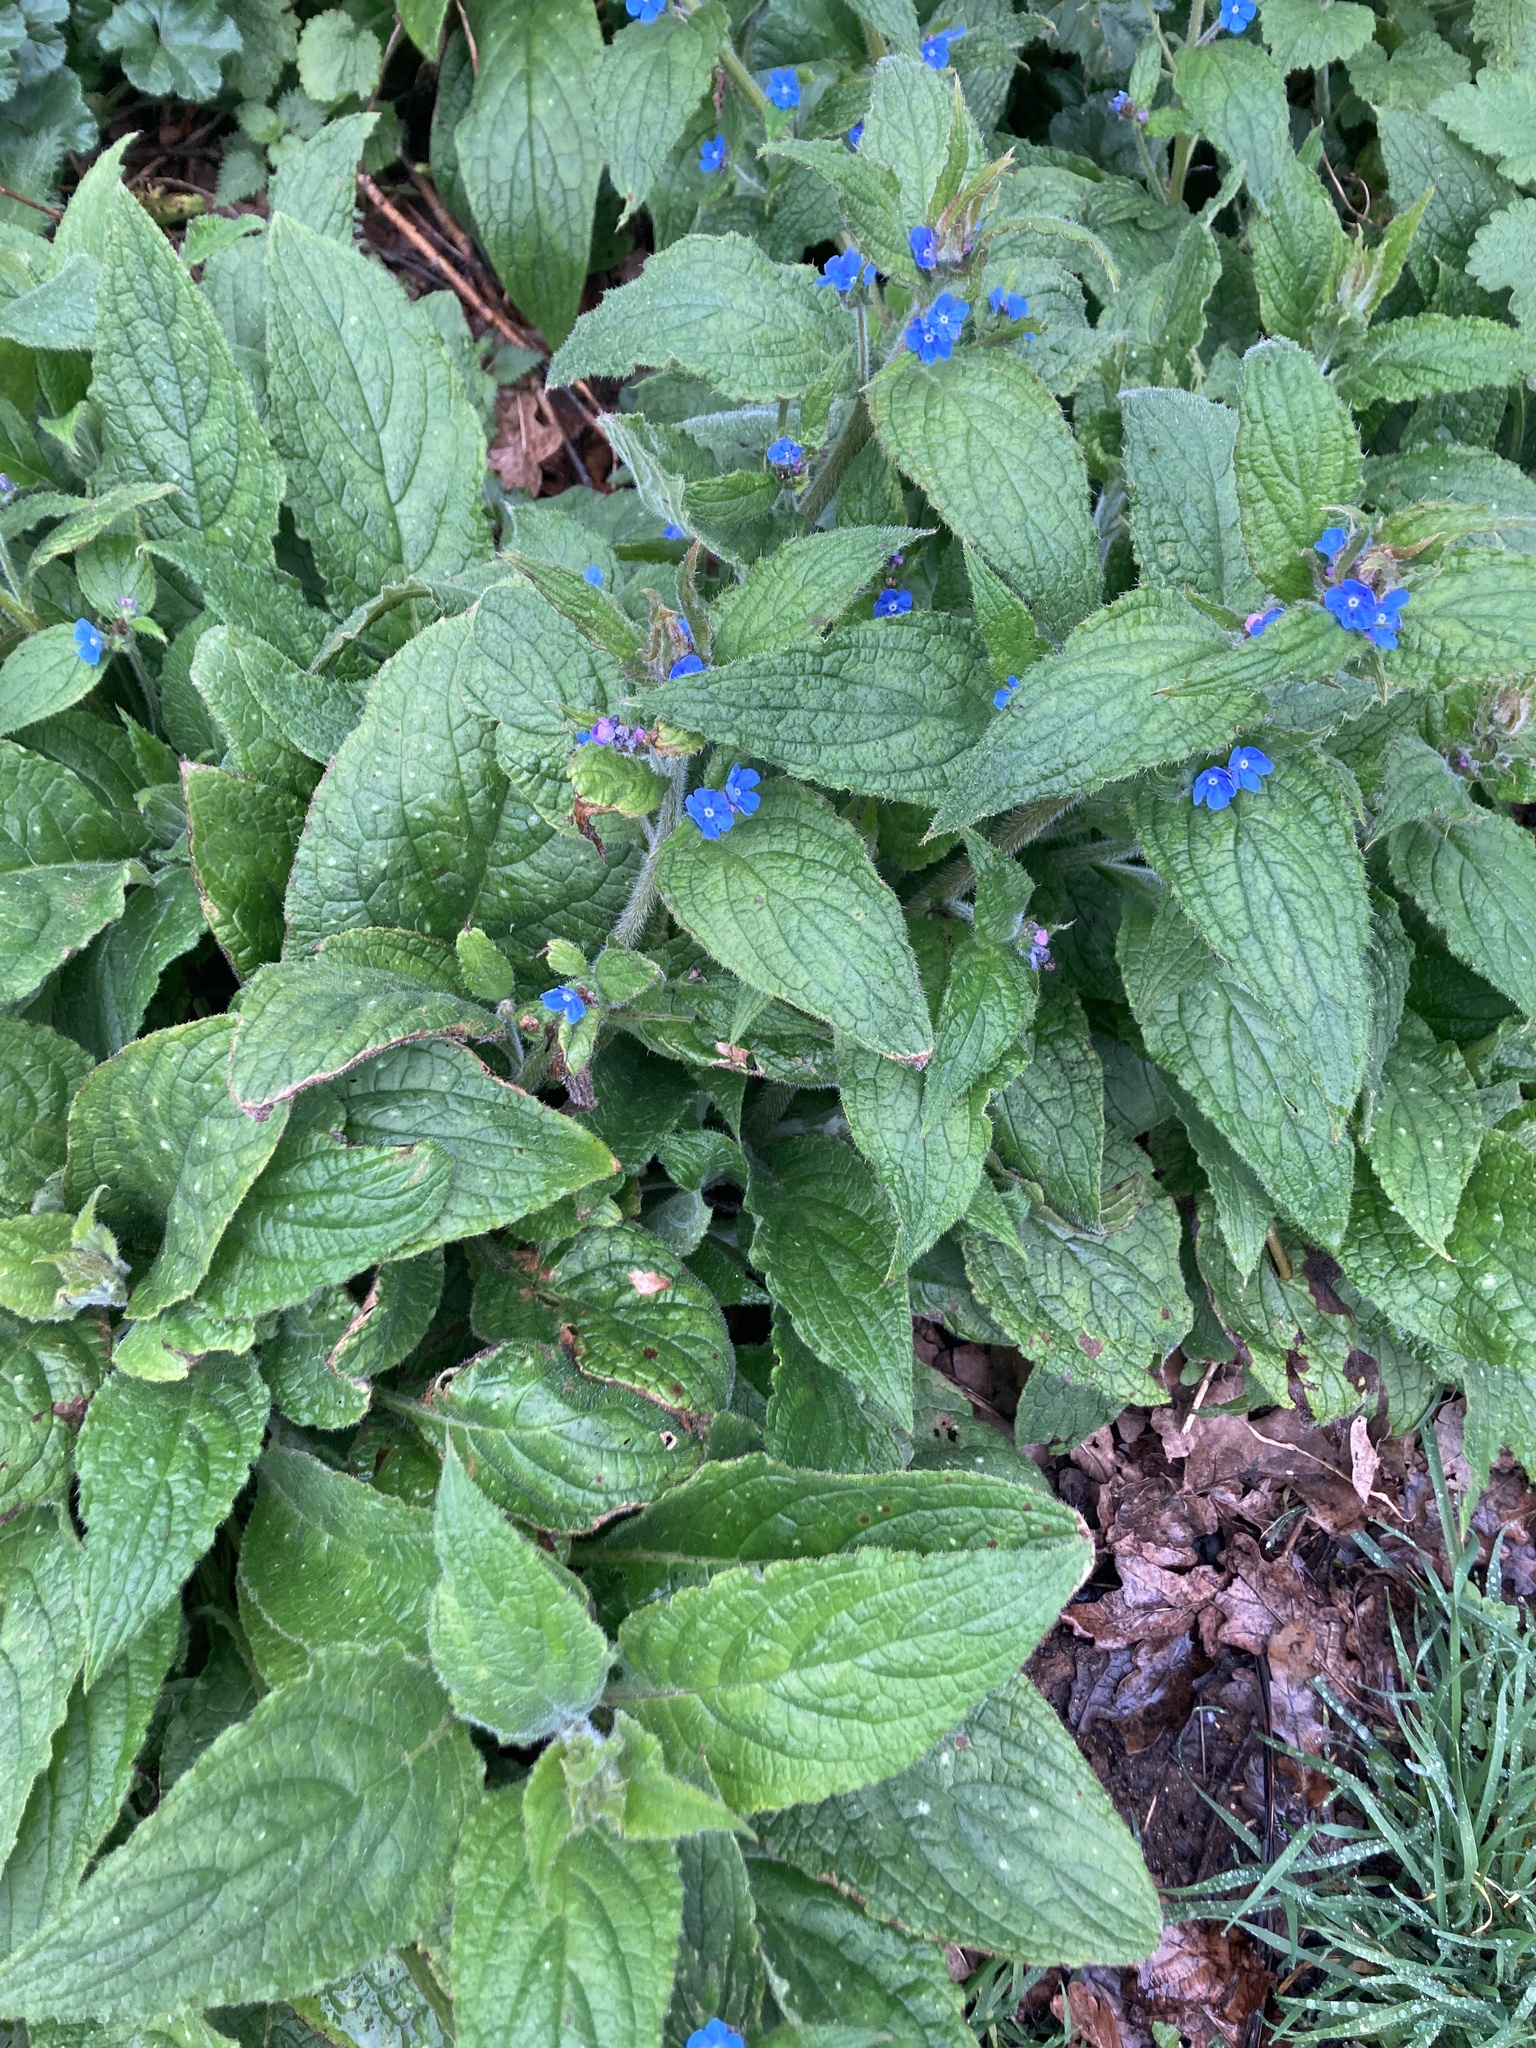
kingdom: Plantae
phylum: Tracheophyta
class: Magnoliopsida
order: Boraginales
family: Boraginaceae
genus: Pentaglottis
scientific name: Pentaglottis sempervirens
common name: Green alkanet
